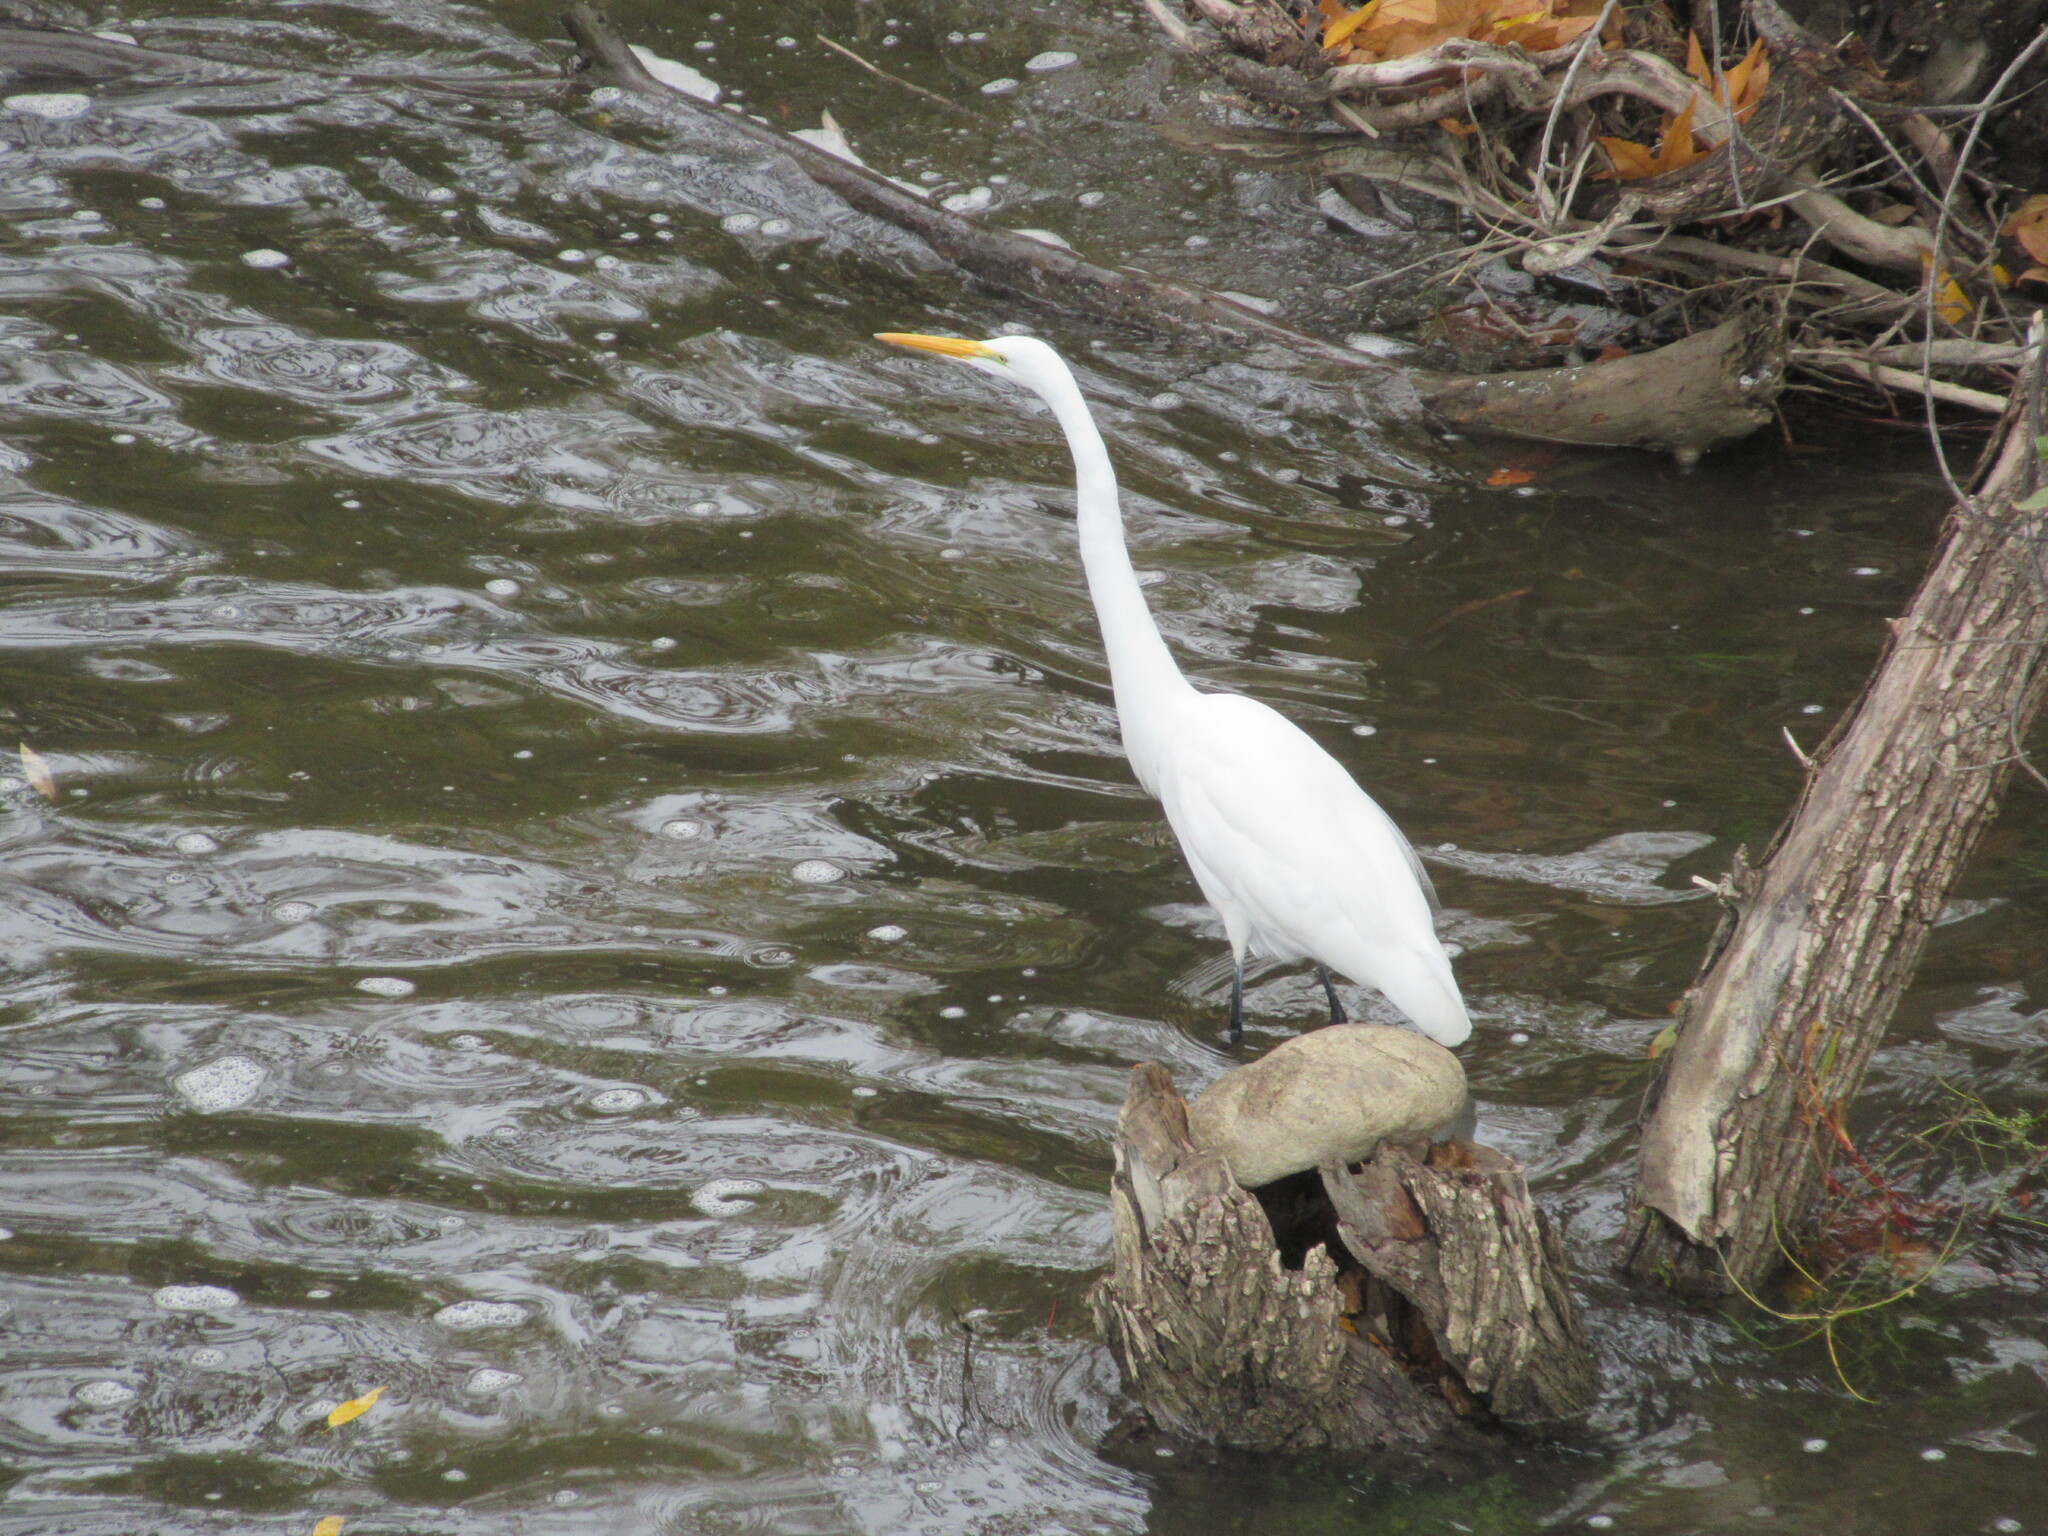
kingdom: Animalia
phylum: Chordata
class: Aves
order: Pelecaniformes
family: Ardeidae
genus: Ardea
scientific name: Ardea alba
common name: Great egret
